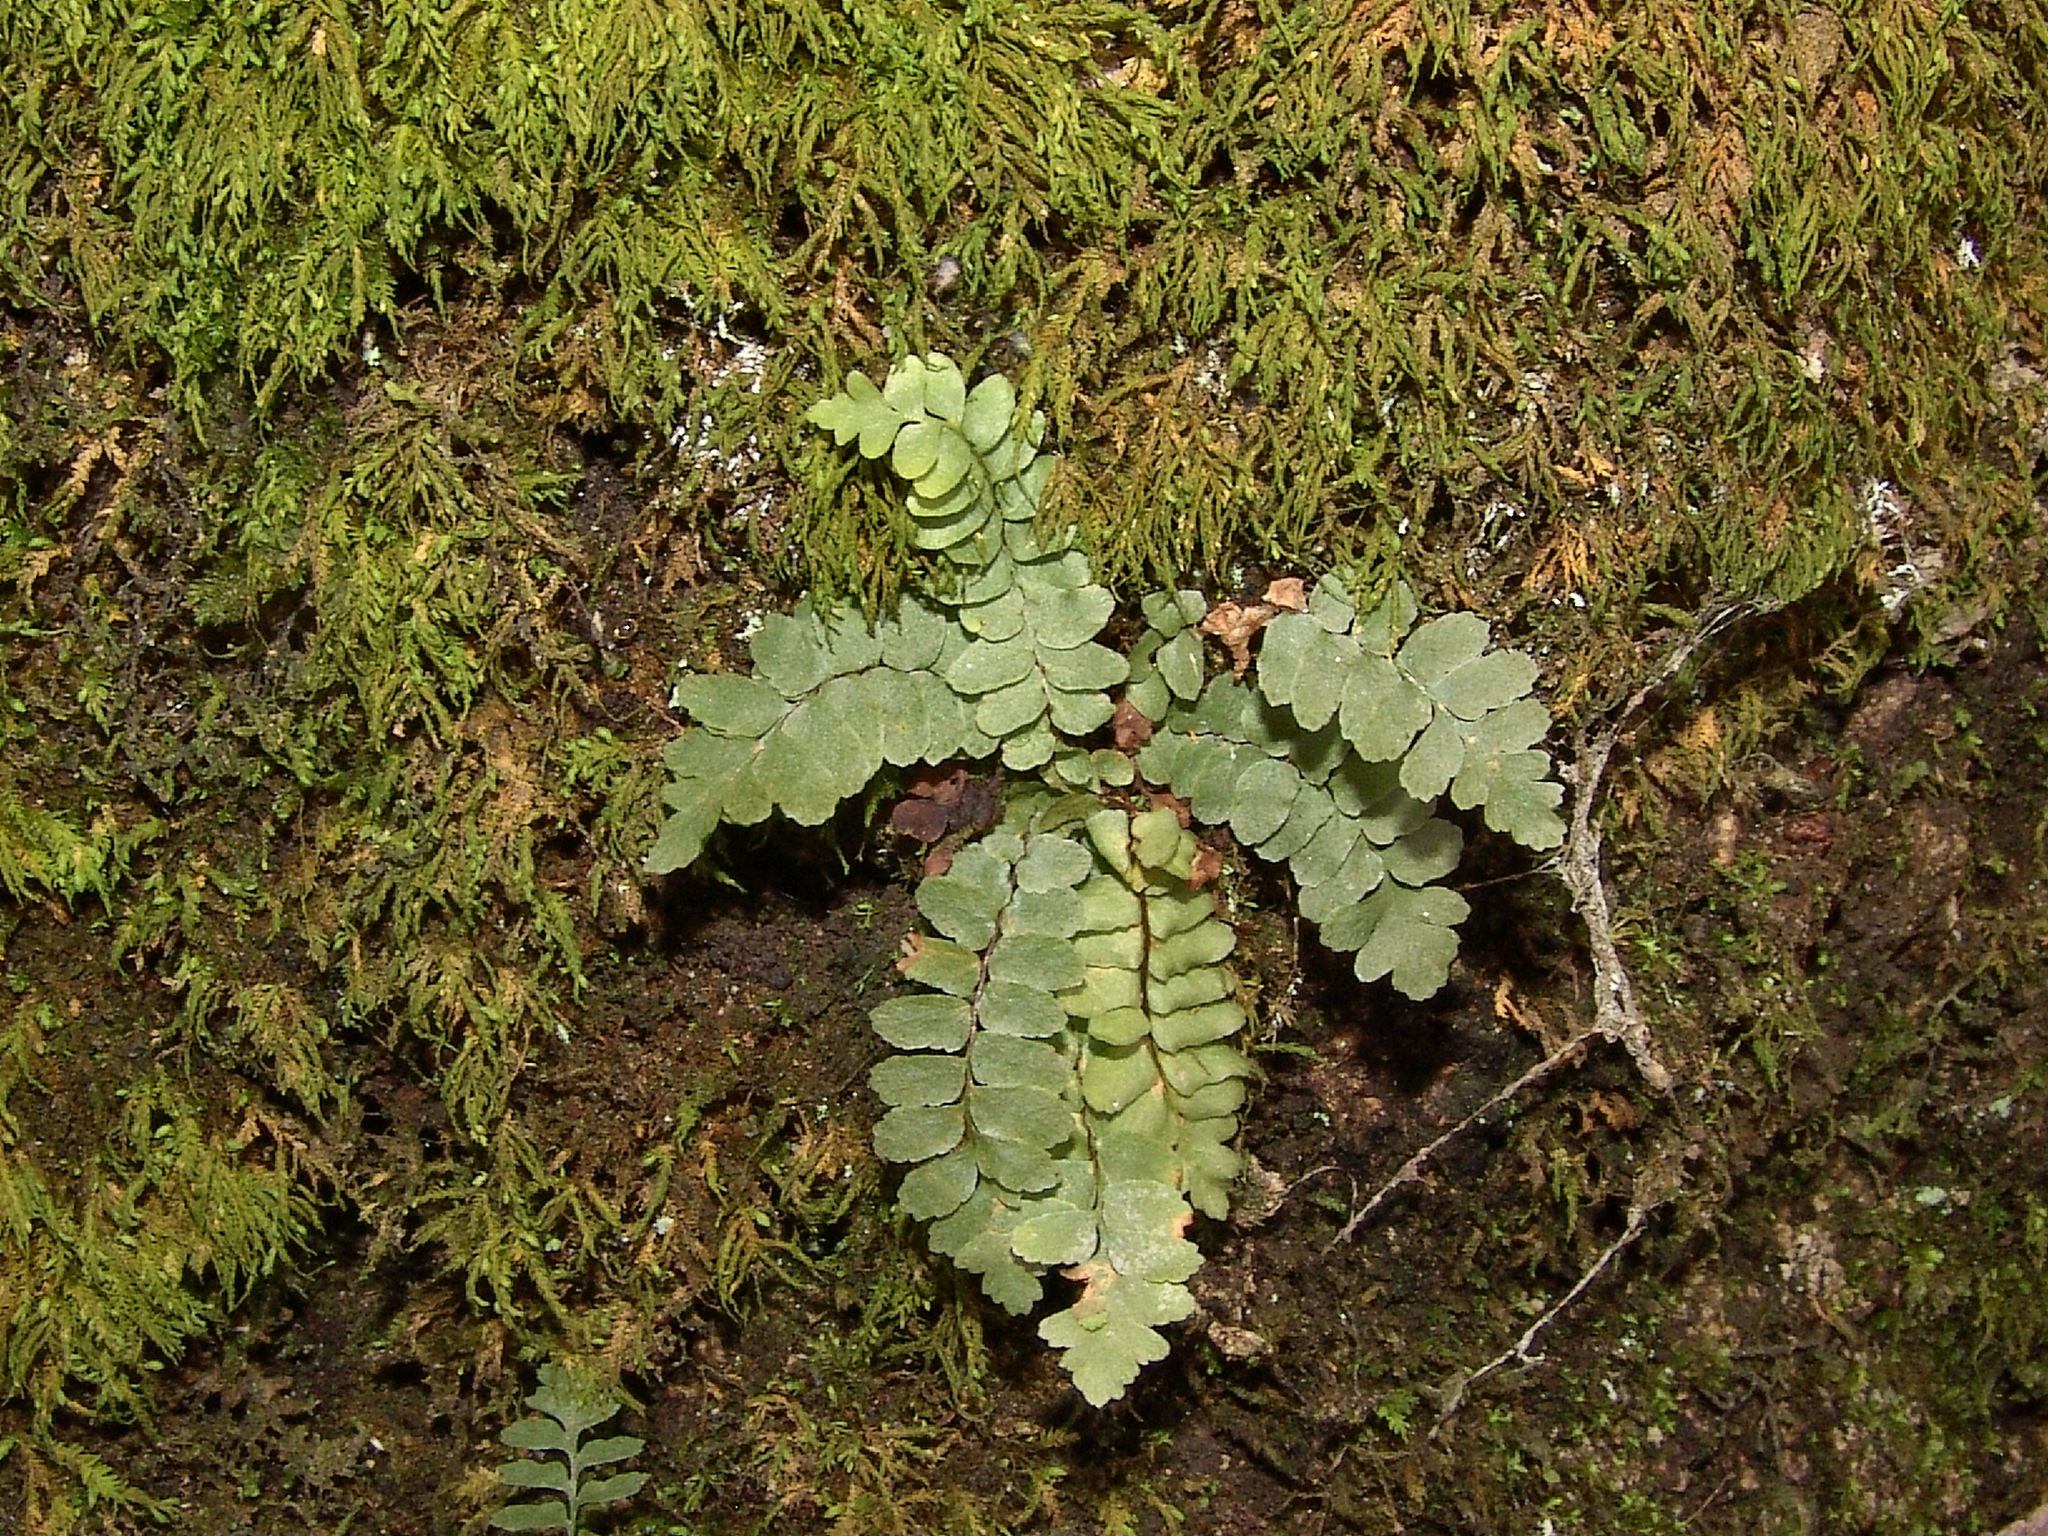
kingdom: Plantae
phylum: Tracheophyta
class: Polypodiopsida
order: Polypodiales
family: Aspleniaceae
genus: Asplenium
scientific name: Asplenium platyneuron
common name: Ebony spleenwort
